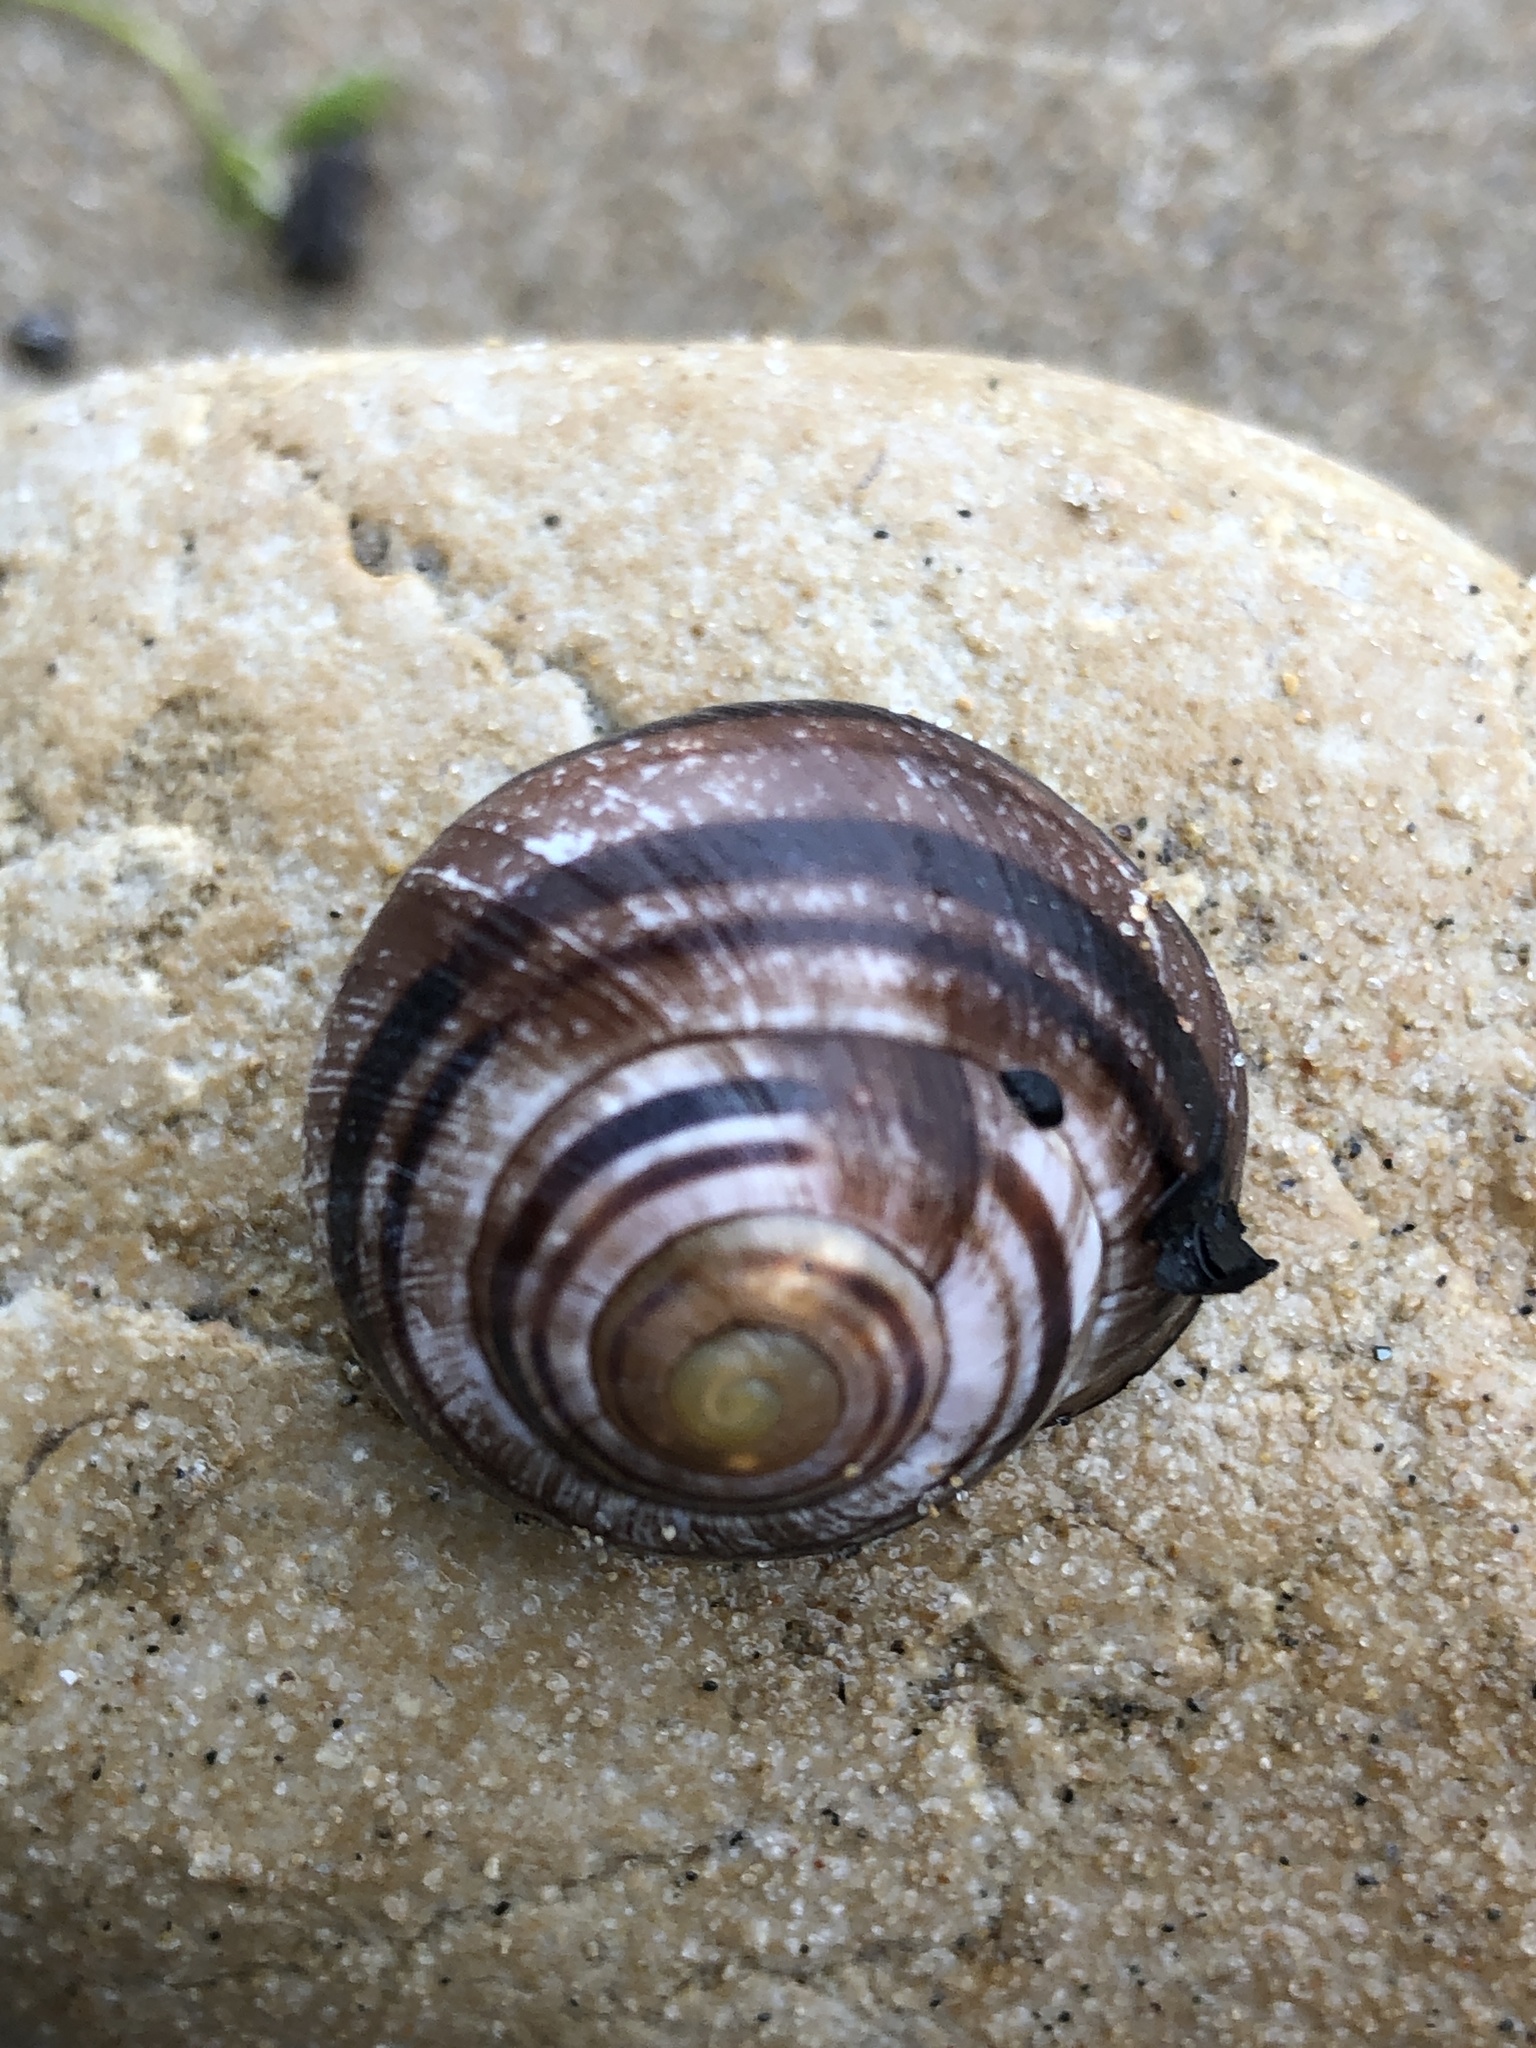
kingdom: Animalia
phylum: Mollusca
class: Gastropoda
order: Stylommatophora
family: Helicidae
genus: Cepaea
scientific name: Cepaea nemoralis
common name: Grovesnail
